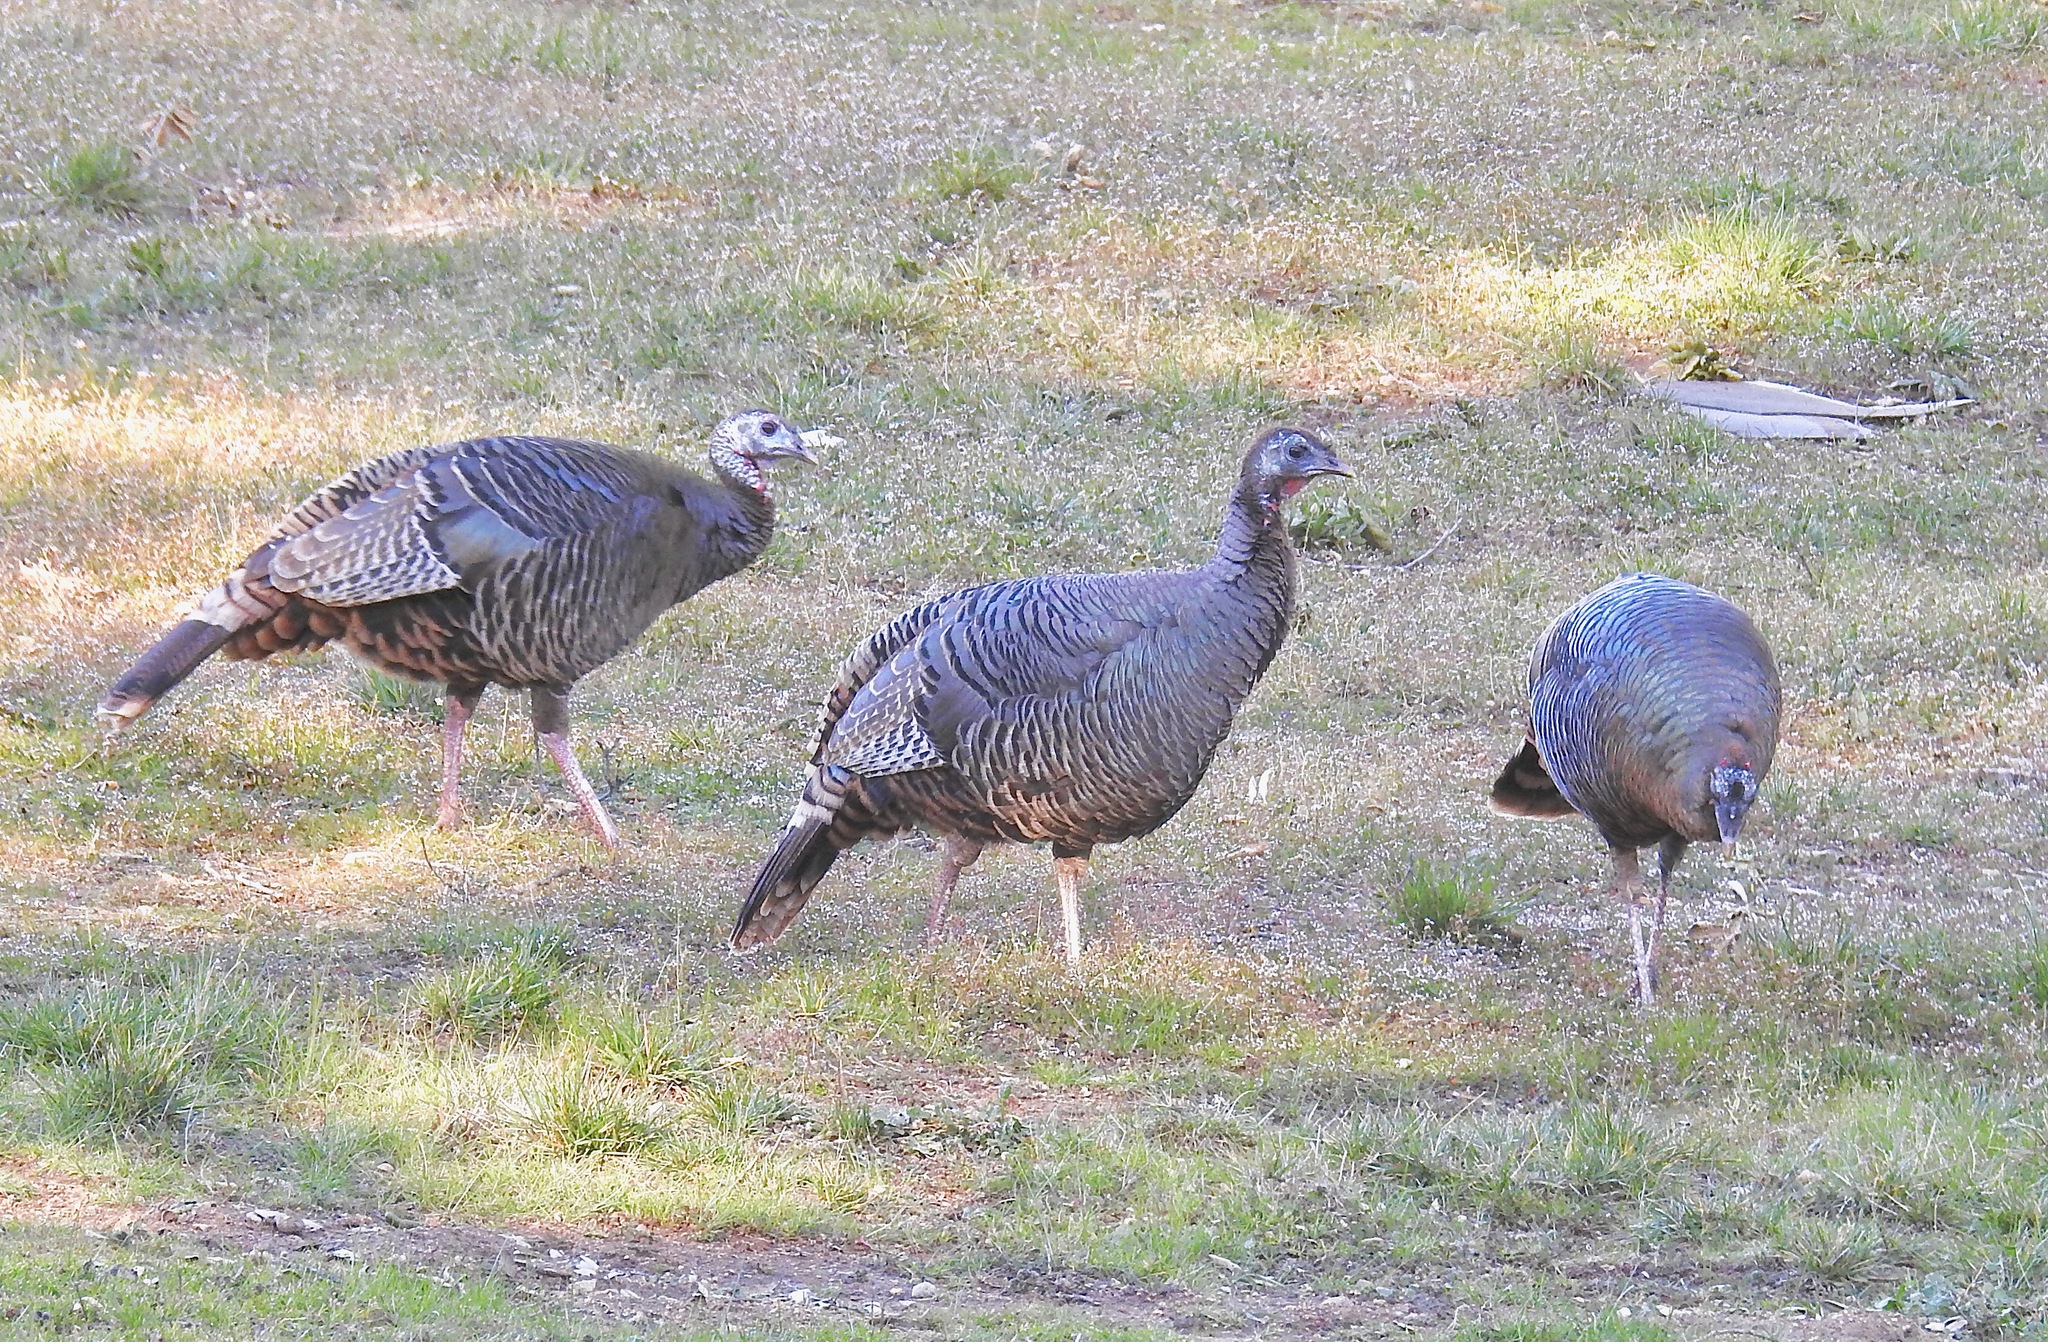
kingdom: Animalia
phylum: Chordata
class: Aves
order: Galliformes
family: Phasianidae
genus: Meleagris
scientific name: Meleagris gallopavo
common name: Wild turkey
